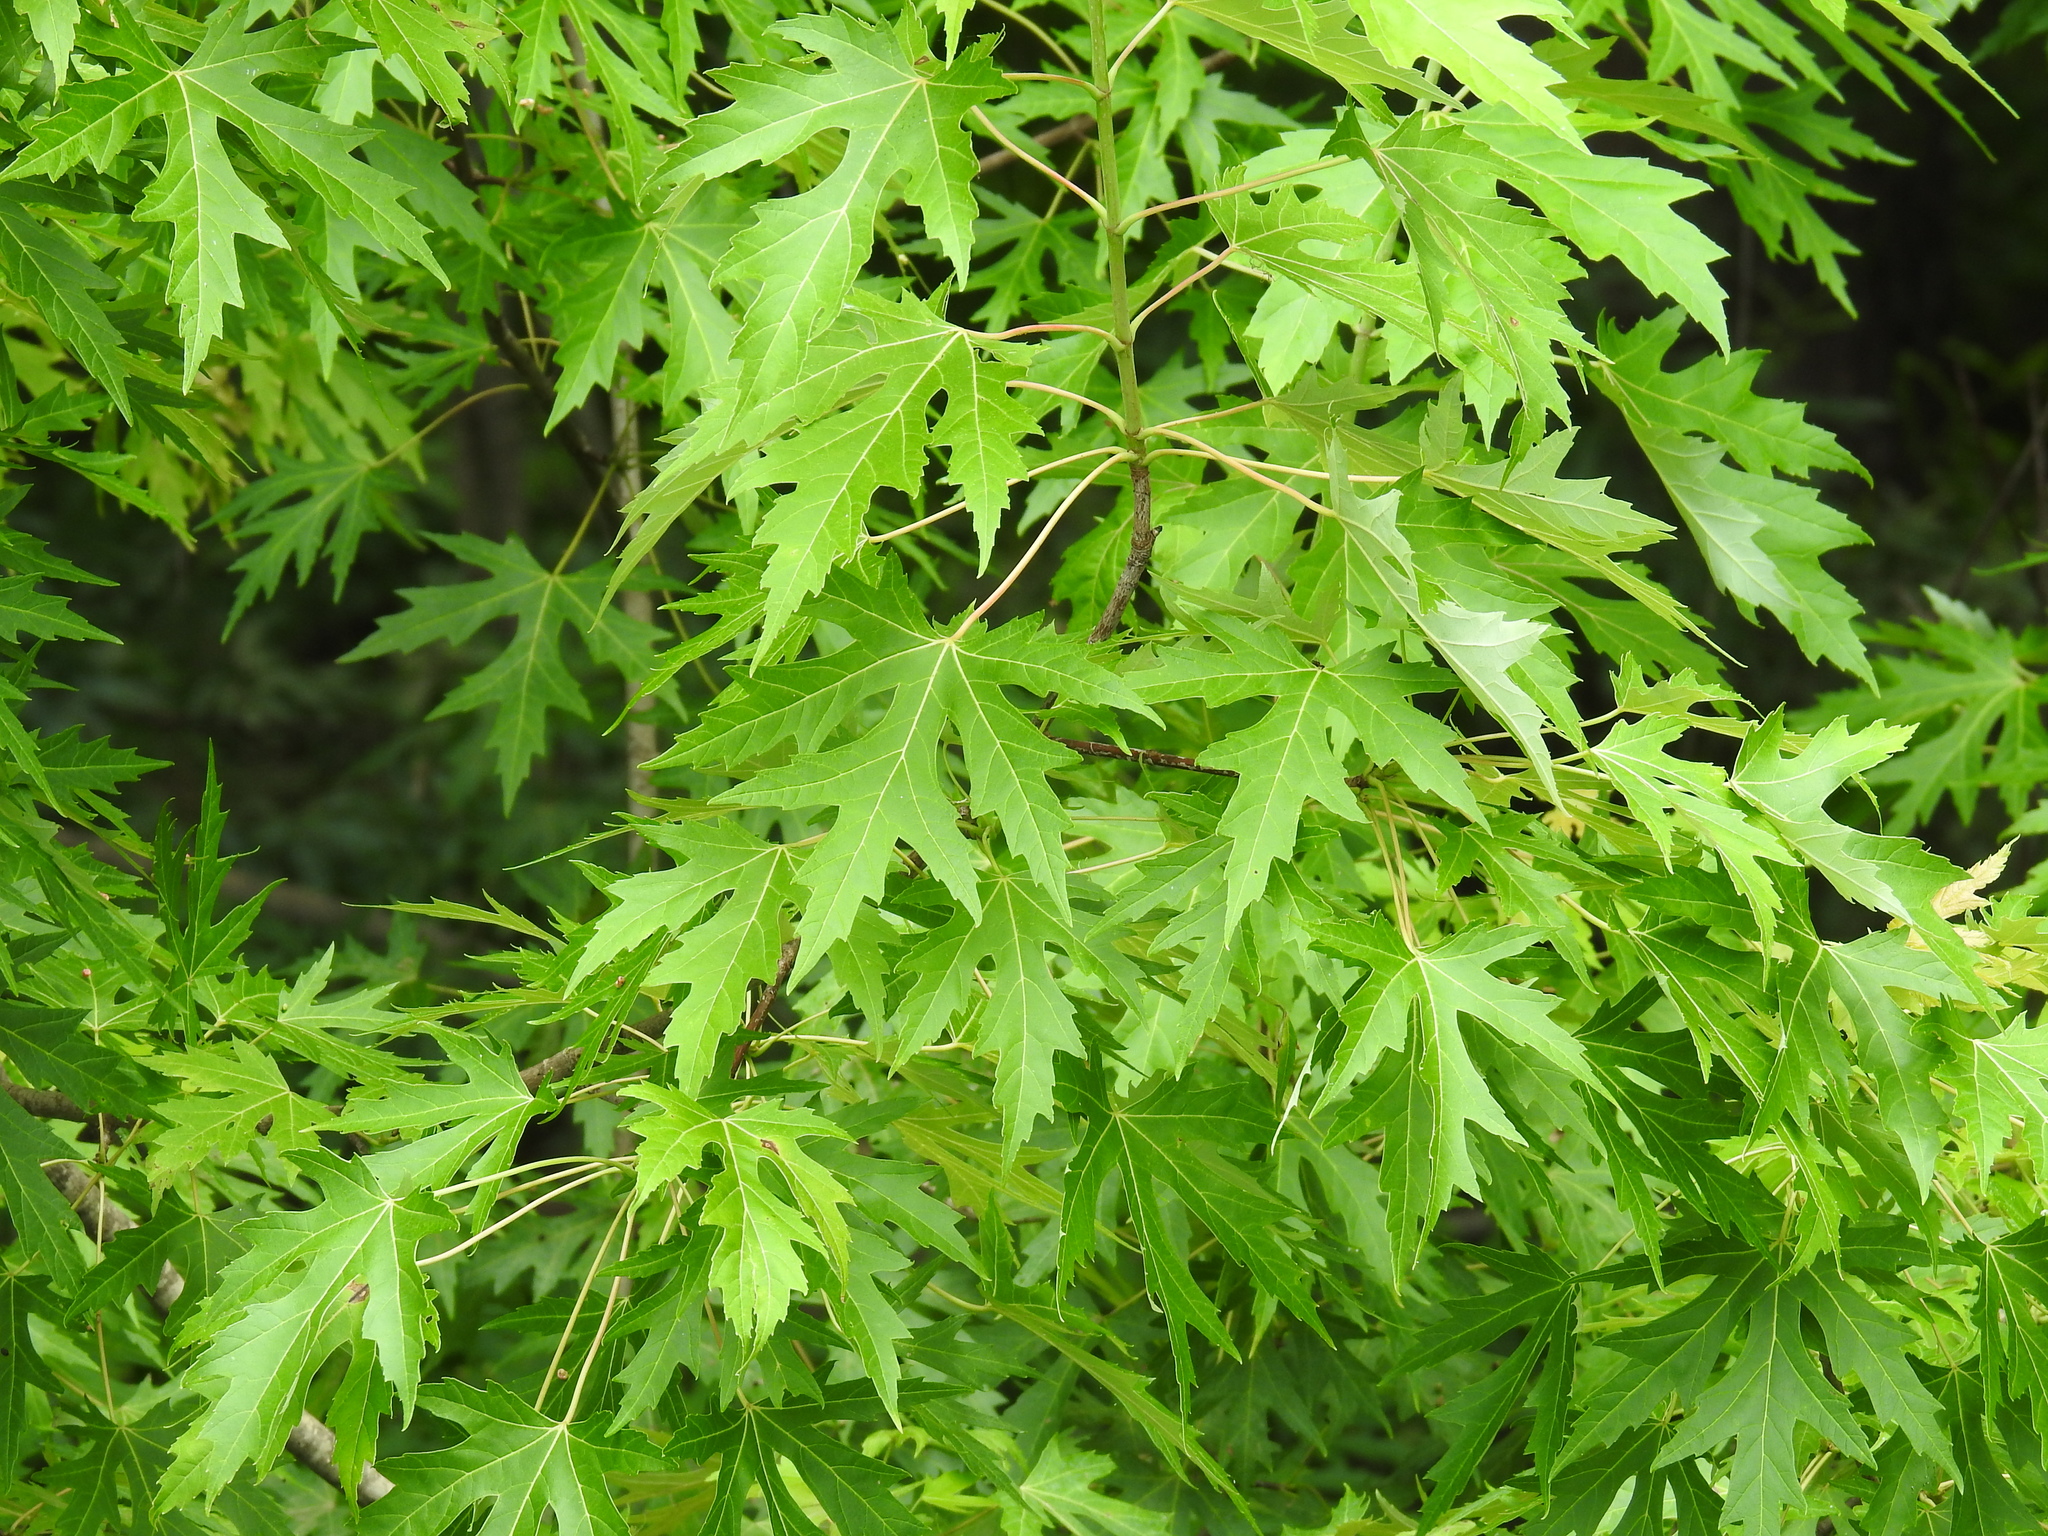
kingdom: Plantae
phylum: Tracheophyta
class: Magnoliopsida
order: Sapindales
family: Sapindaceae
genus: Acer
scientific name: Acer saccharinum
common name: Silver maple
